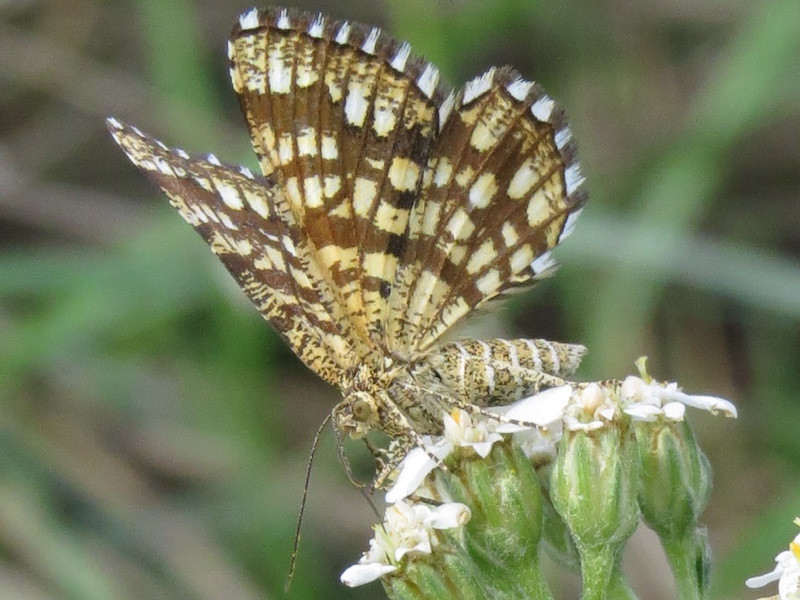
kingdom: Animalia
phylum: Arthropoda
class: Insecta
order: Lepidoptera
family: Geometridae
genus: Chiasmia
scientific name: Chiasmia clathrata
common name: Latticed heath
